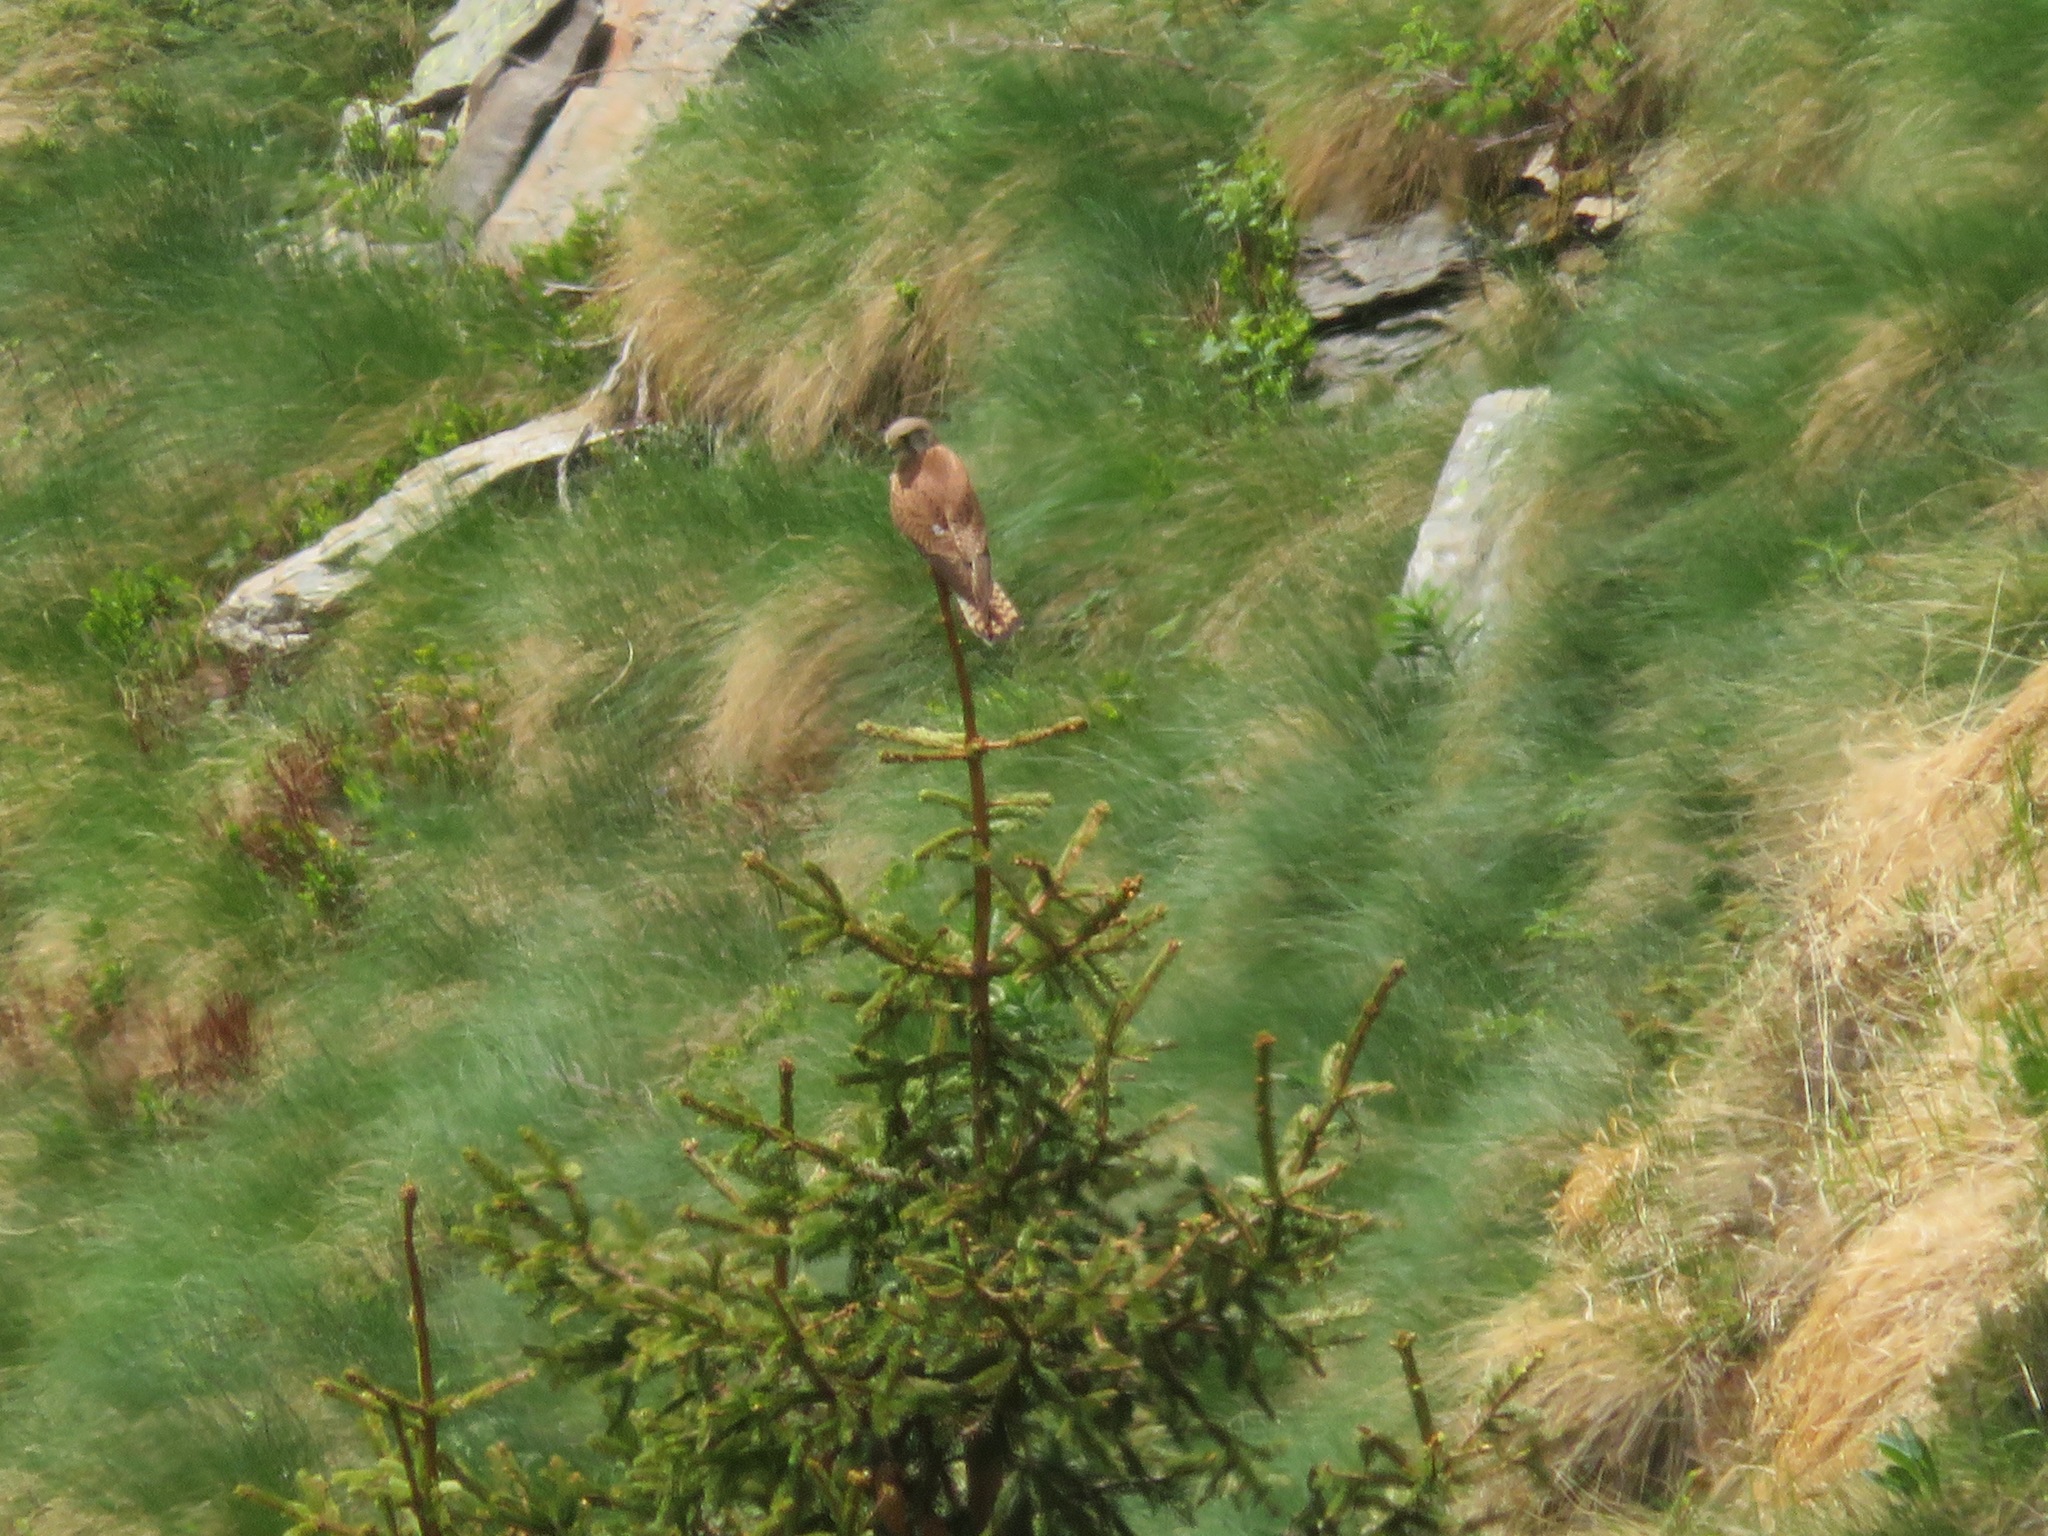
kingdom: Animalia
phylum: Chordata
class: Aves
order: Falconiformes
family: Falconidae
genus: Falco
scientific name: Falco tinnunculus
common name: Common kestrel
